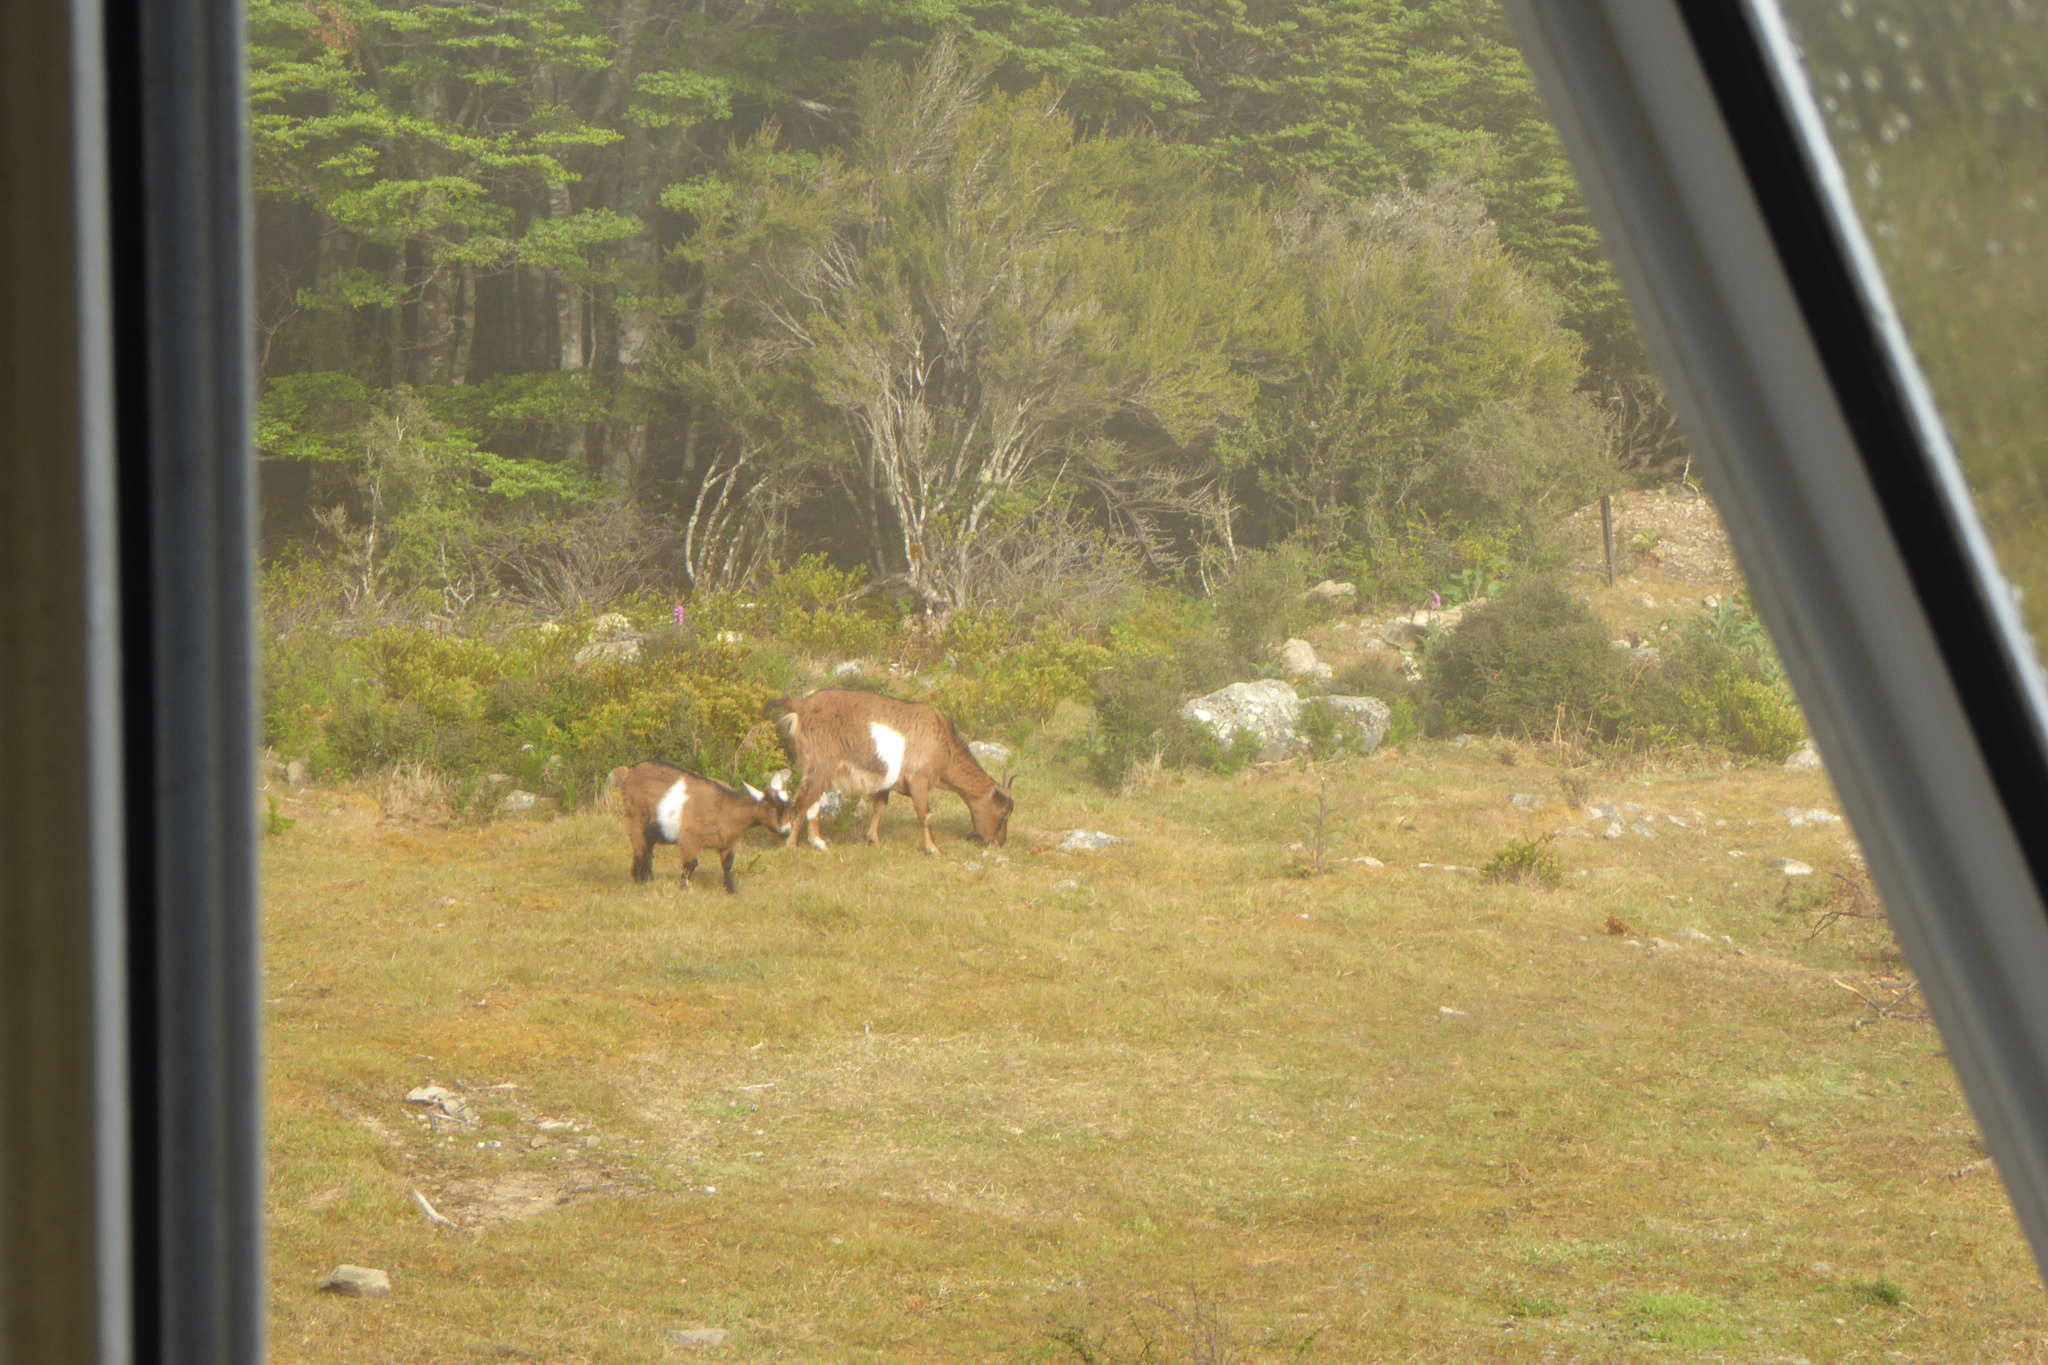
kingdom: Animalia
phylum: Chordata
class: Mammalia
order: Artiodactyla
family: Bovidae
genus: Capra
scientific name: Capra hircus
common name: Domestic goat
